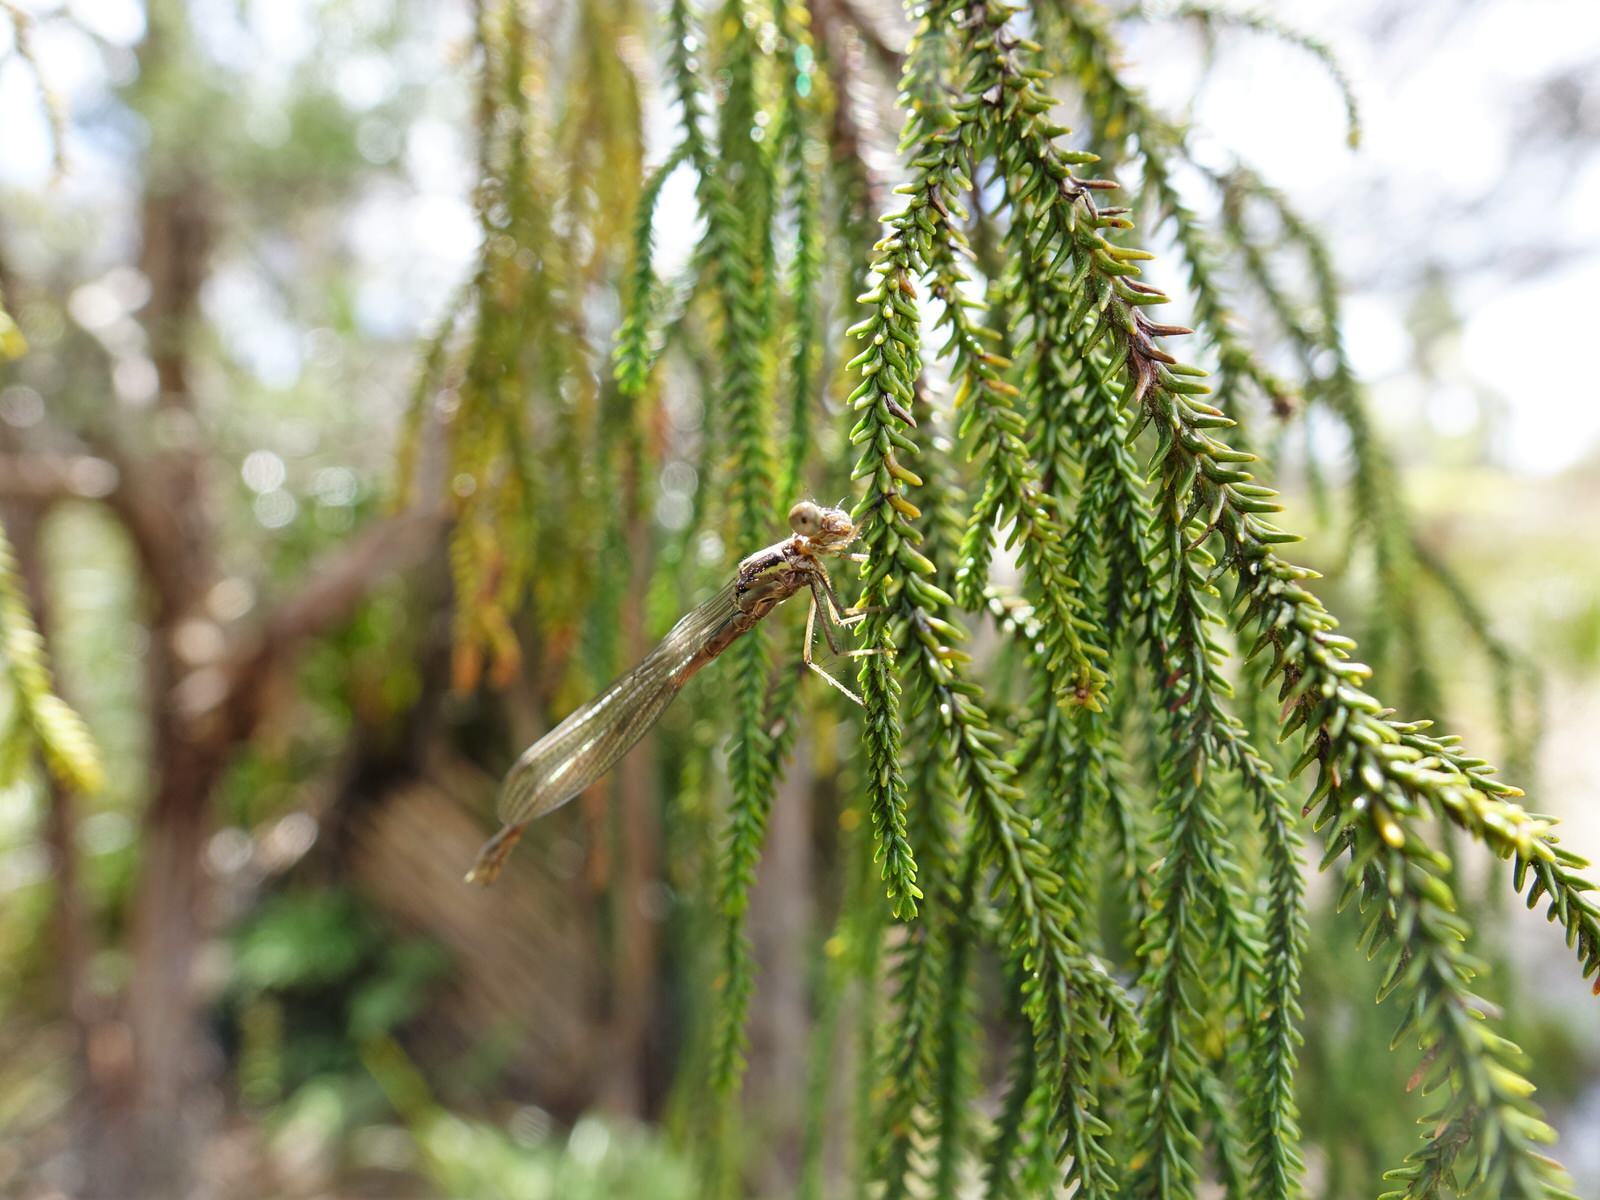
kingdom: Animalia
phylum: Arthropoda
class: Insecta
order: Odonata
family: Coenagrionidae
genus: Xanthocnemis
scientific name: Xanthocnemis zealandica
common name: Common redcoat damselfly
